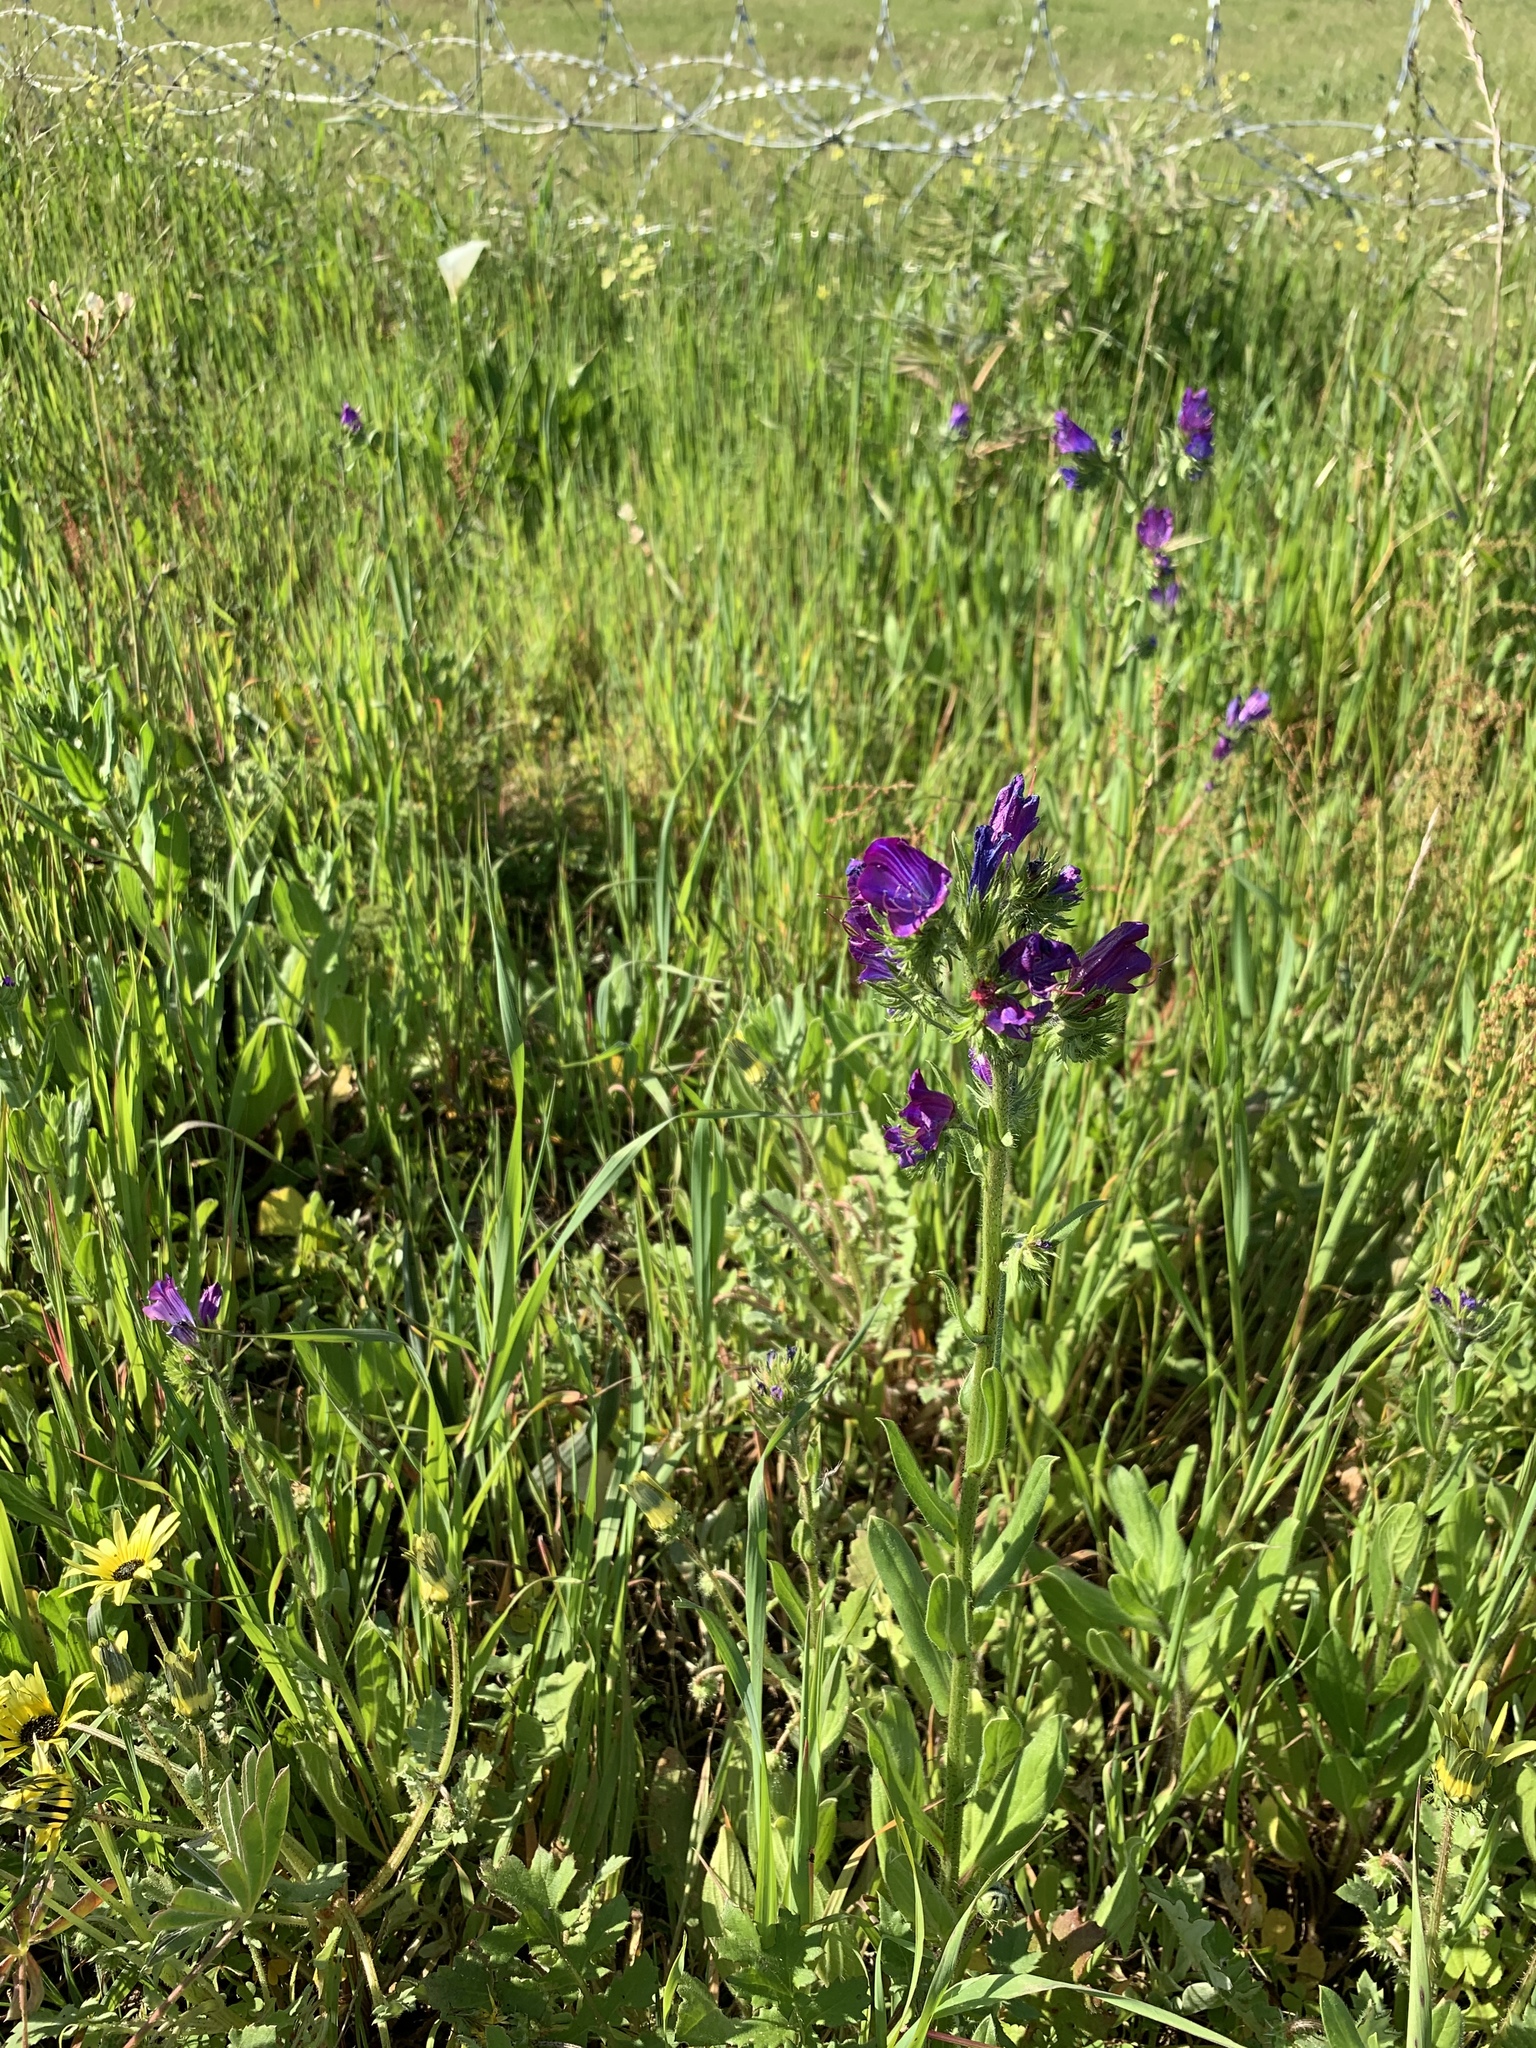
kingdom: Plantae
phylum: Tracheophyta
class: Magnoliopsida
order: Boraginales
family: Boraginaceae
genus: Echium
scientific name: Echium plantagineum
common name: Purple viper's-bugloss
